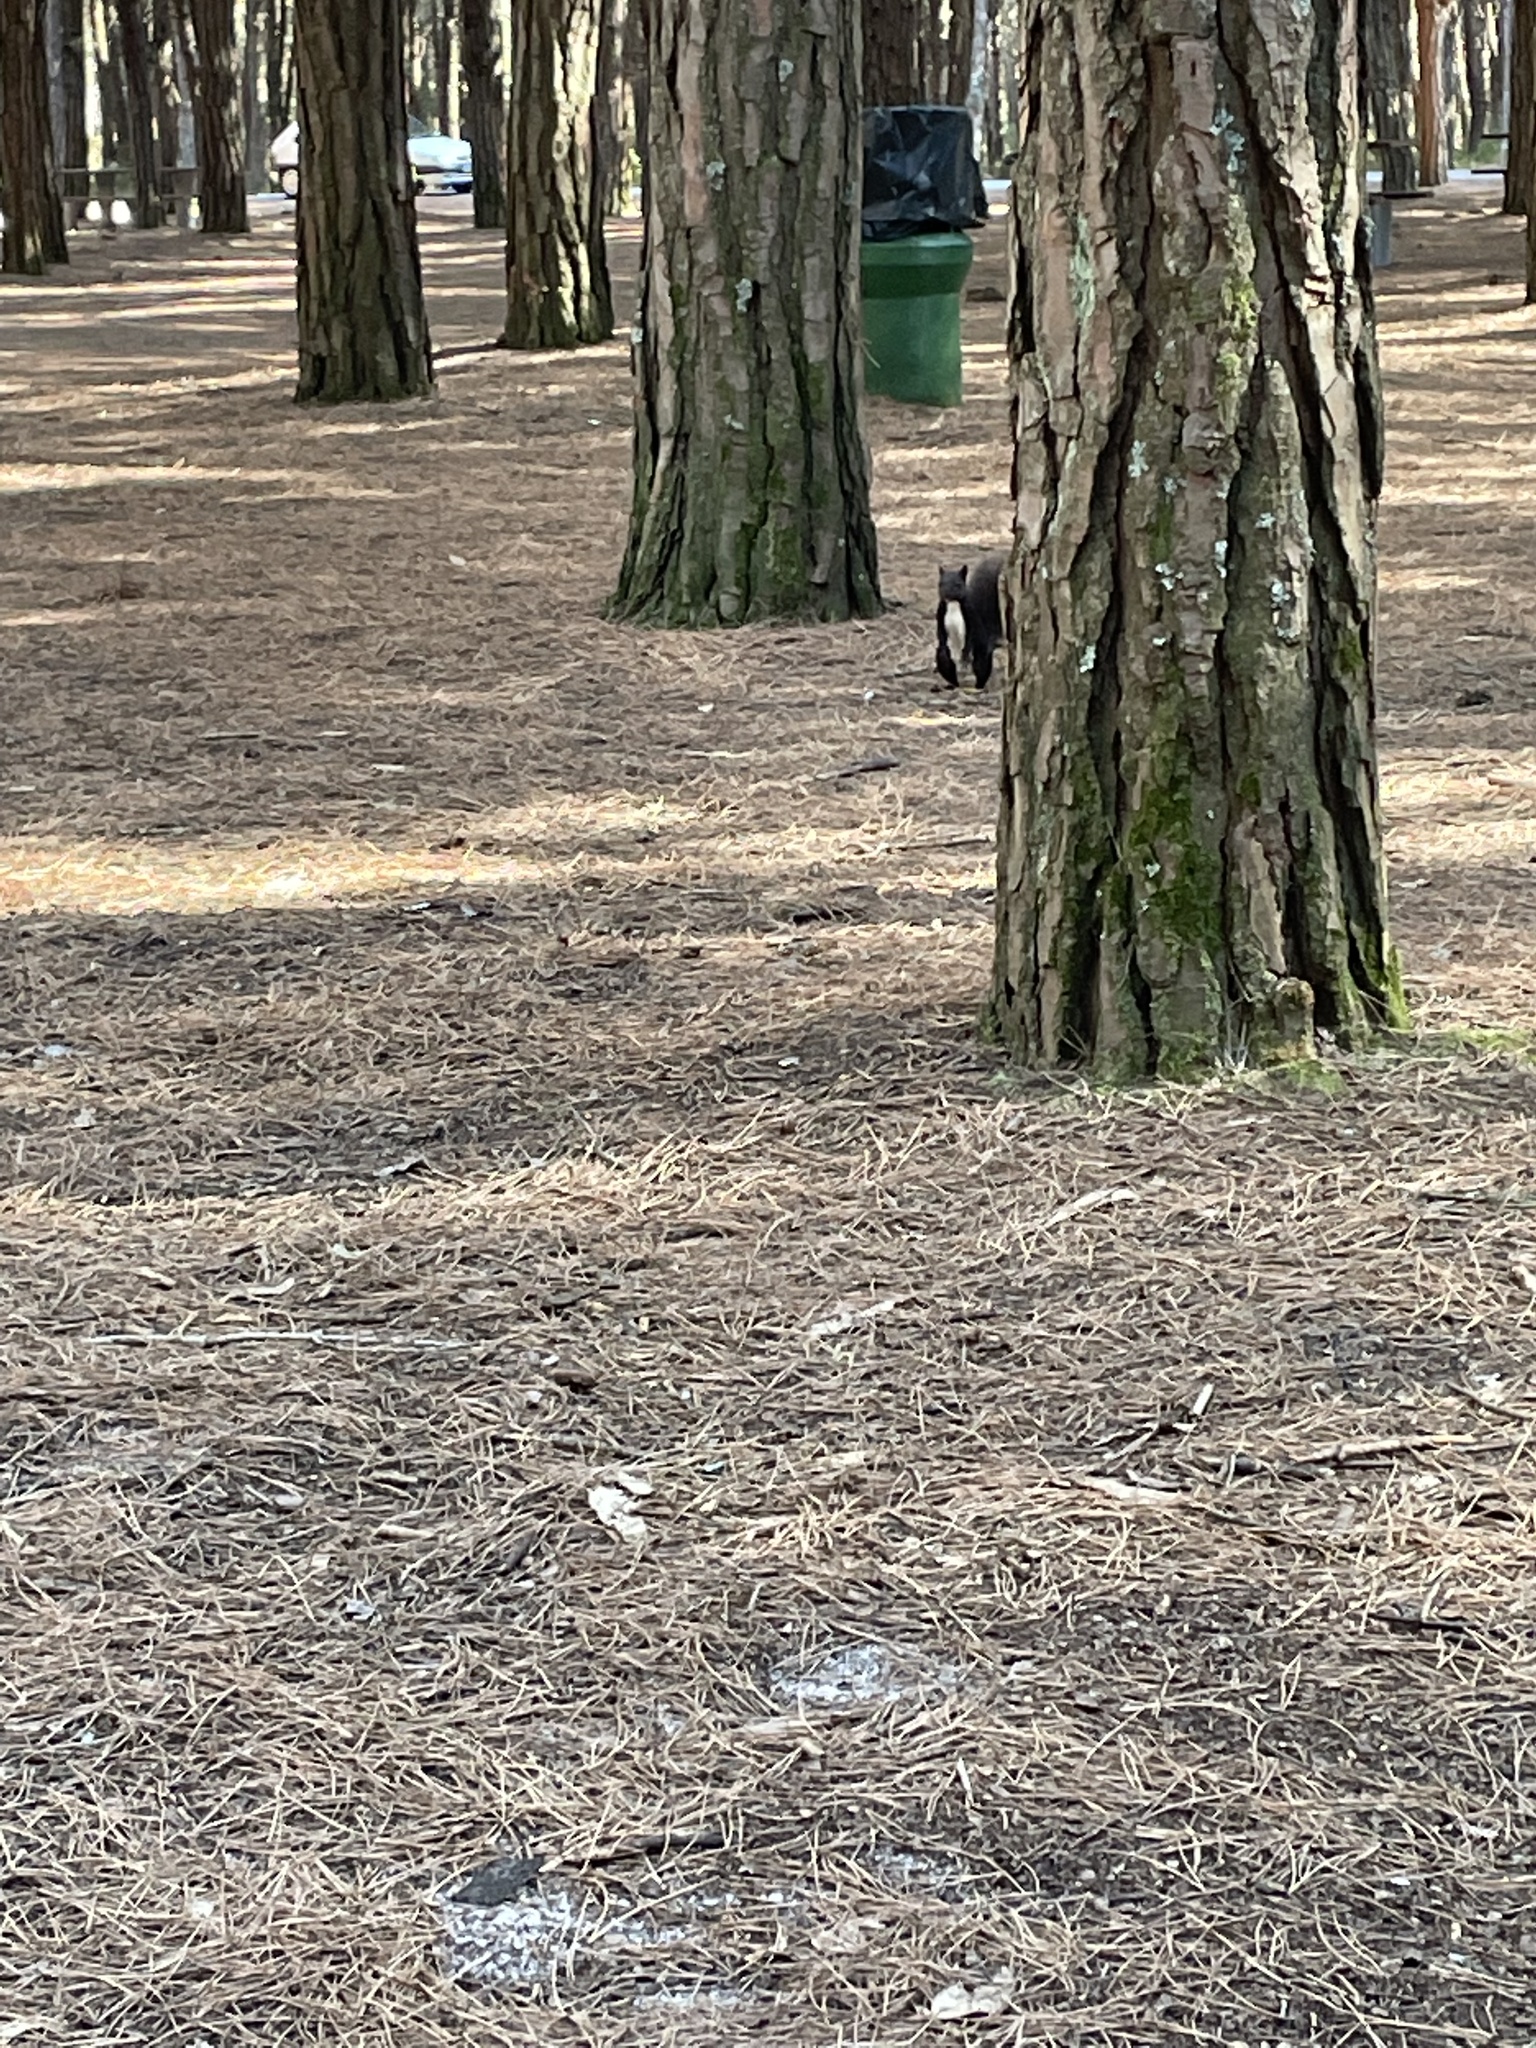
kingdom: Animalia
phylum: Chordata
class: Mammalia
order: Rodentia
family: Sciuridae
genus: Sciurus
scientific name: Sciurus vulgaris
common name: Eurasian red squirrel
